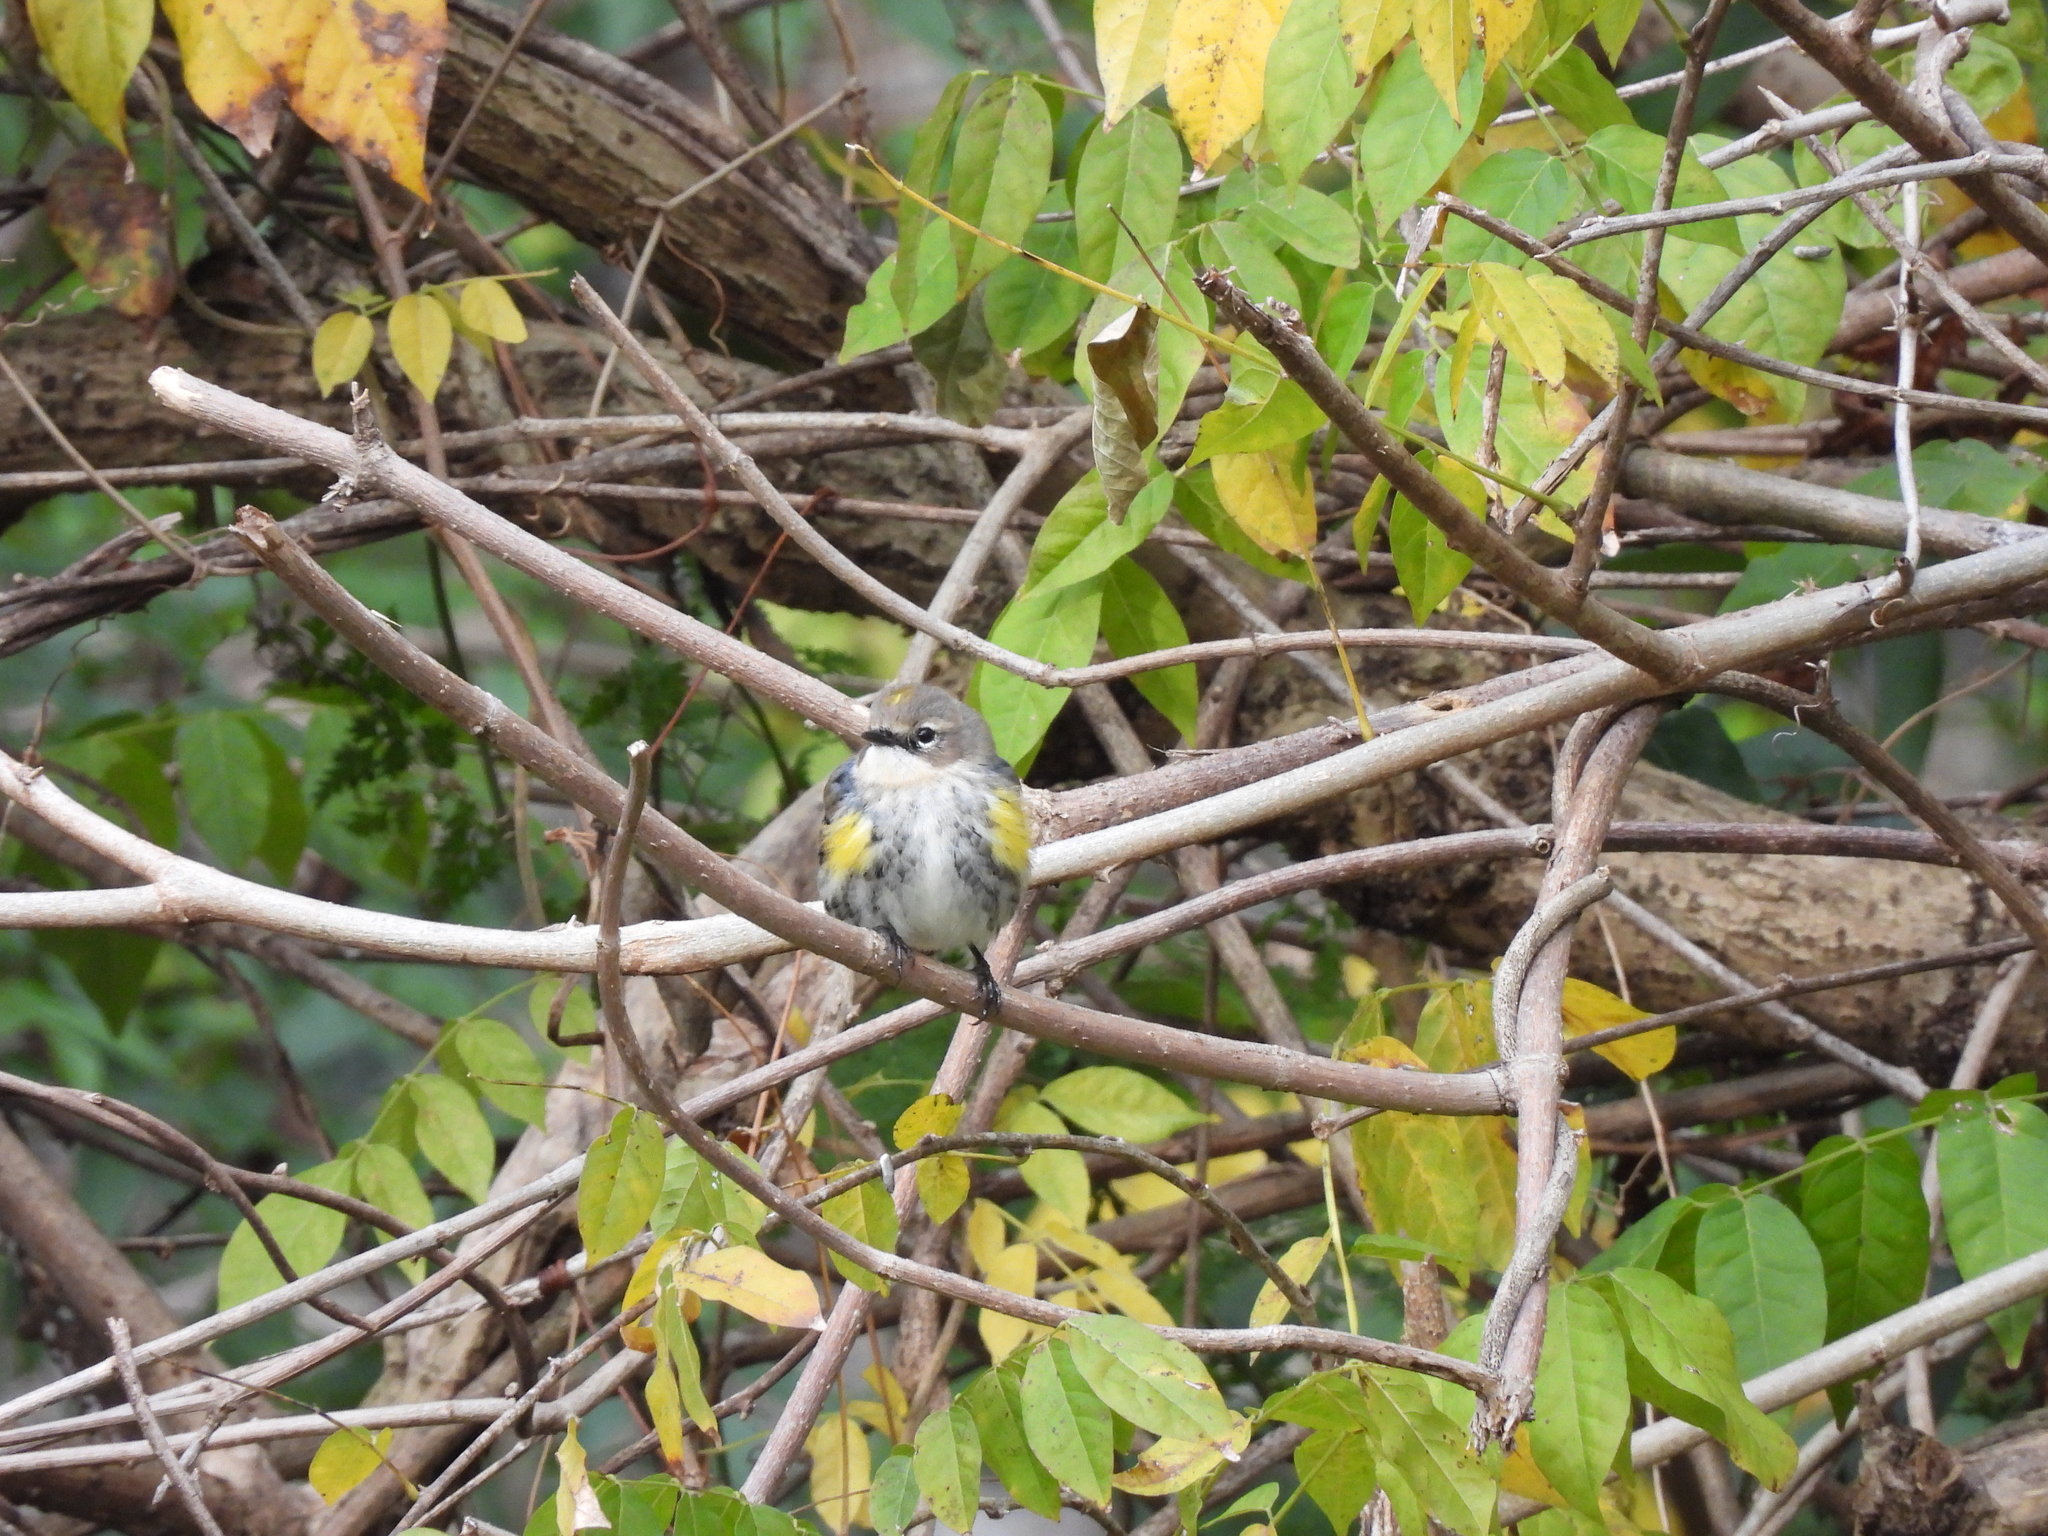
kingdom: Animalia
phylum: Chordata
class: Aves
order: Passeriformes
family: Parulidae
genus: Setophaga
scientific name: Setophaga coronata
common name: Myrtle warbler
